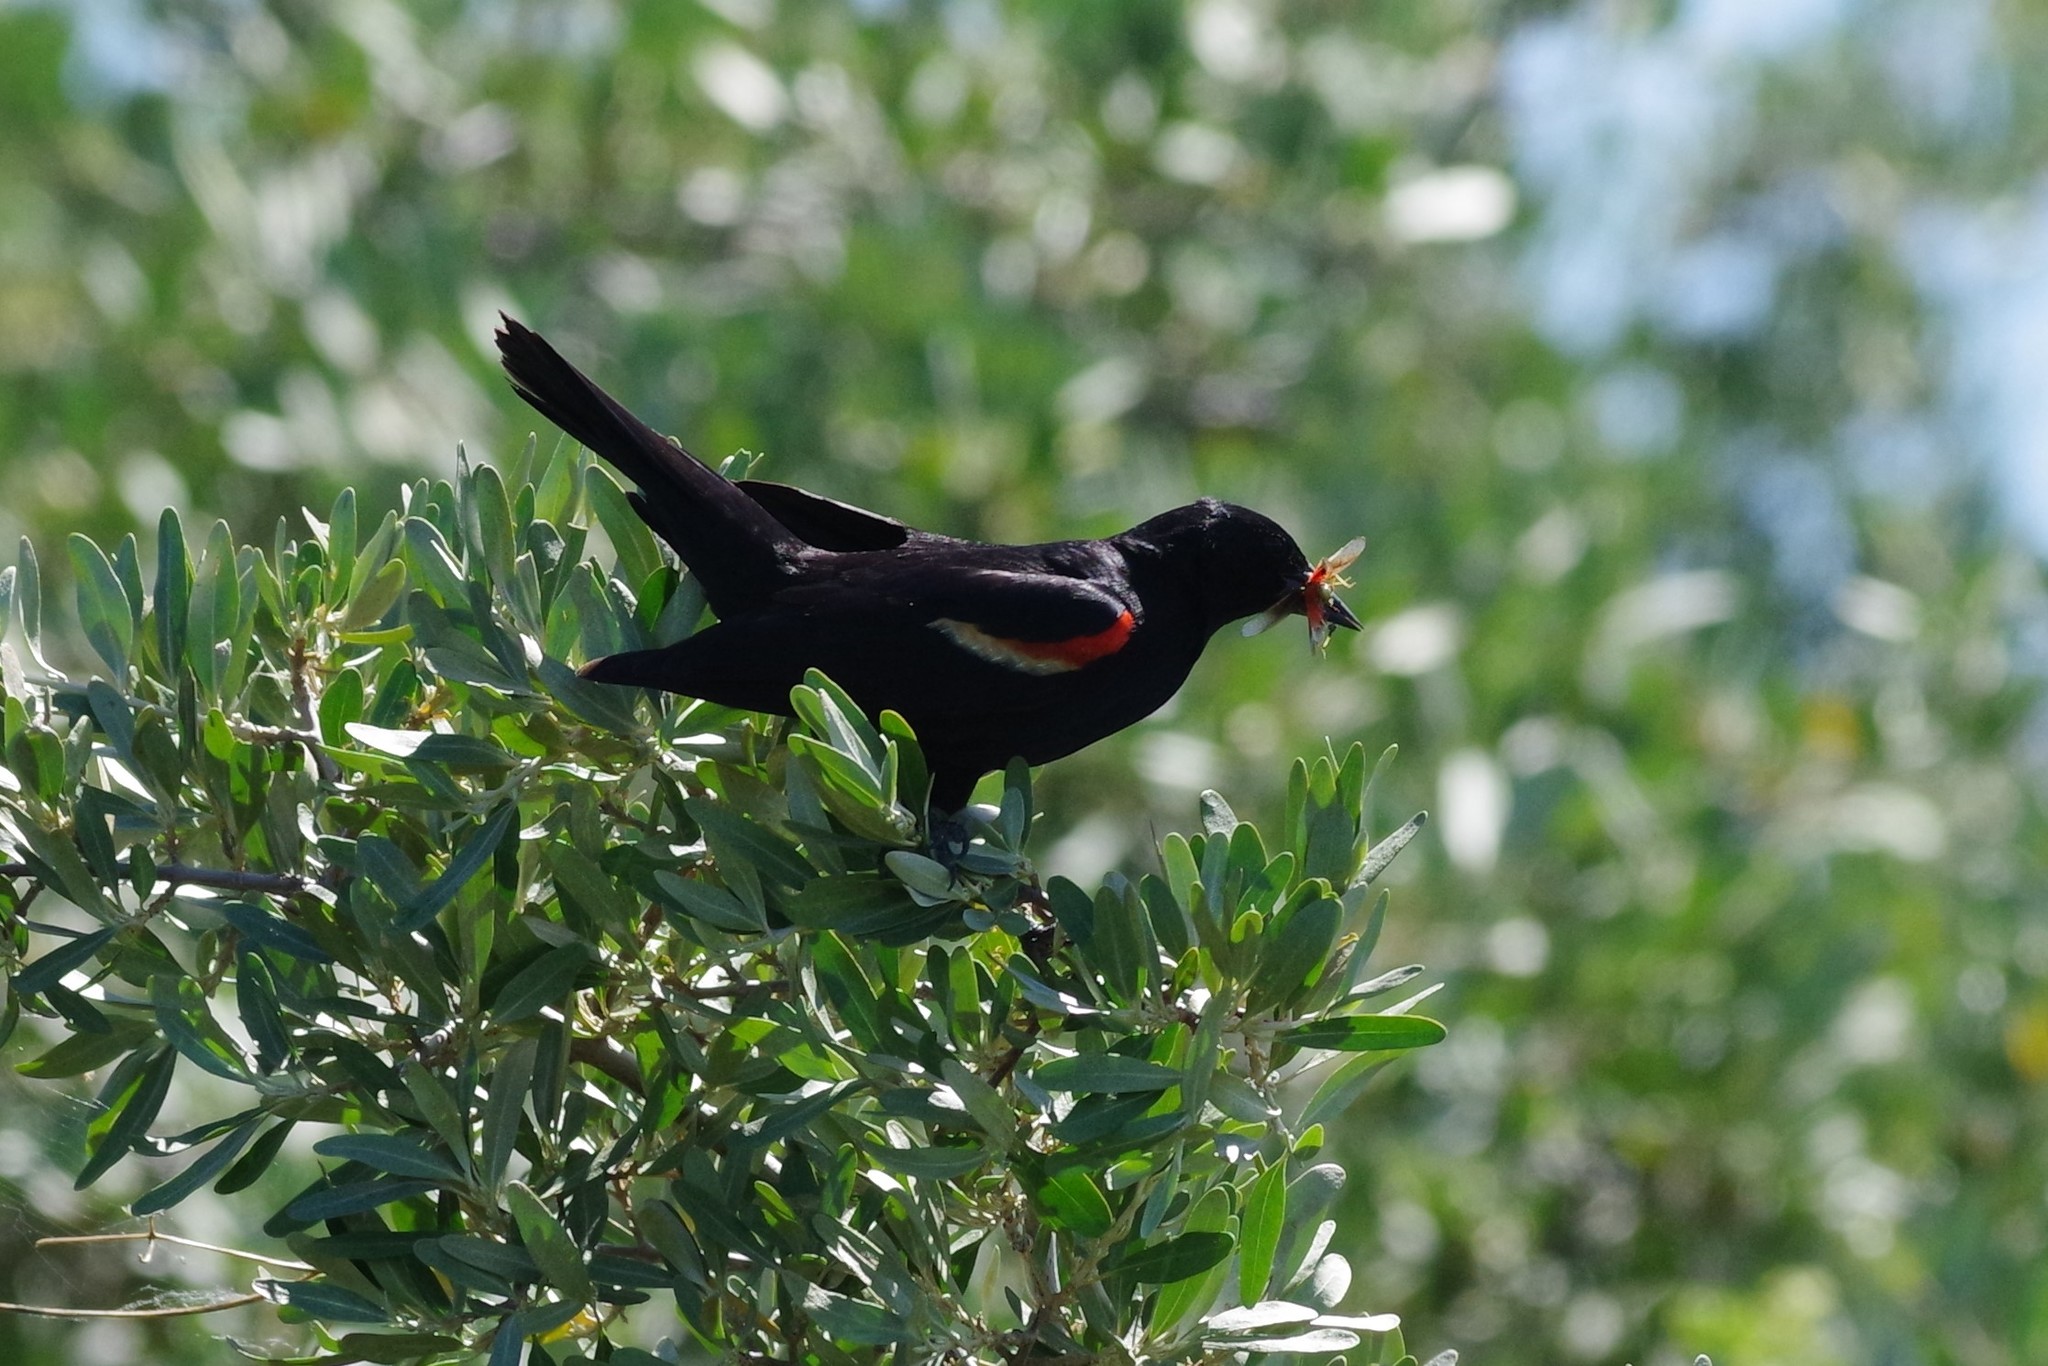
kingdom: Animalia
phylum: Chordata
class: Aves
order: Passeriformes
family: Icteridae
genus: Agelaius
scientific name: Agelaius phoeniceus
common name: Red-winged blackbird
